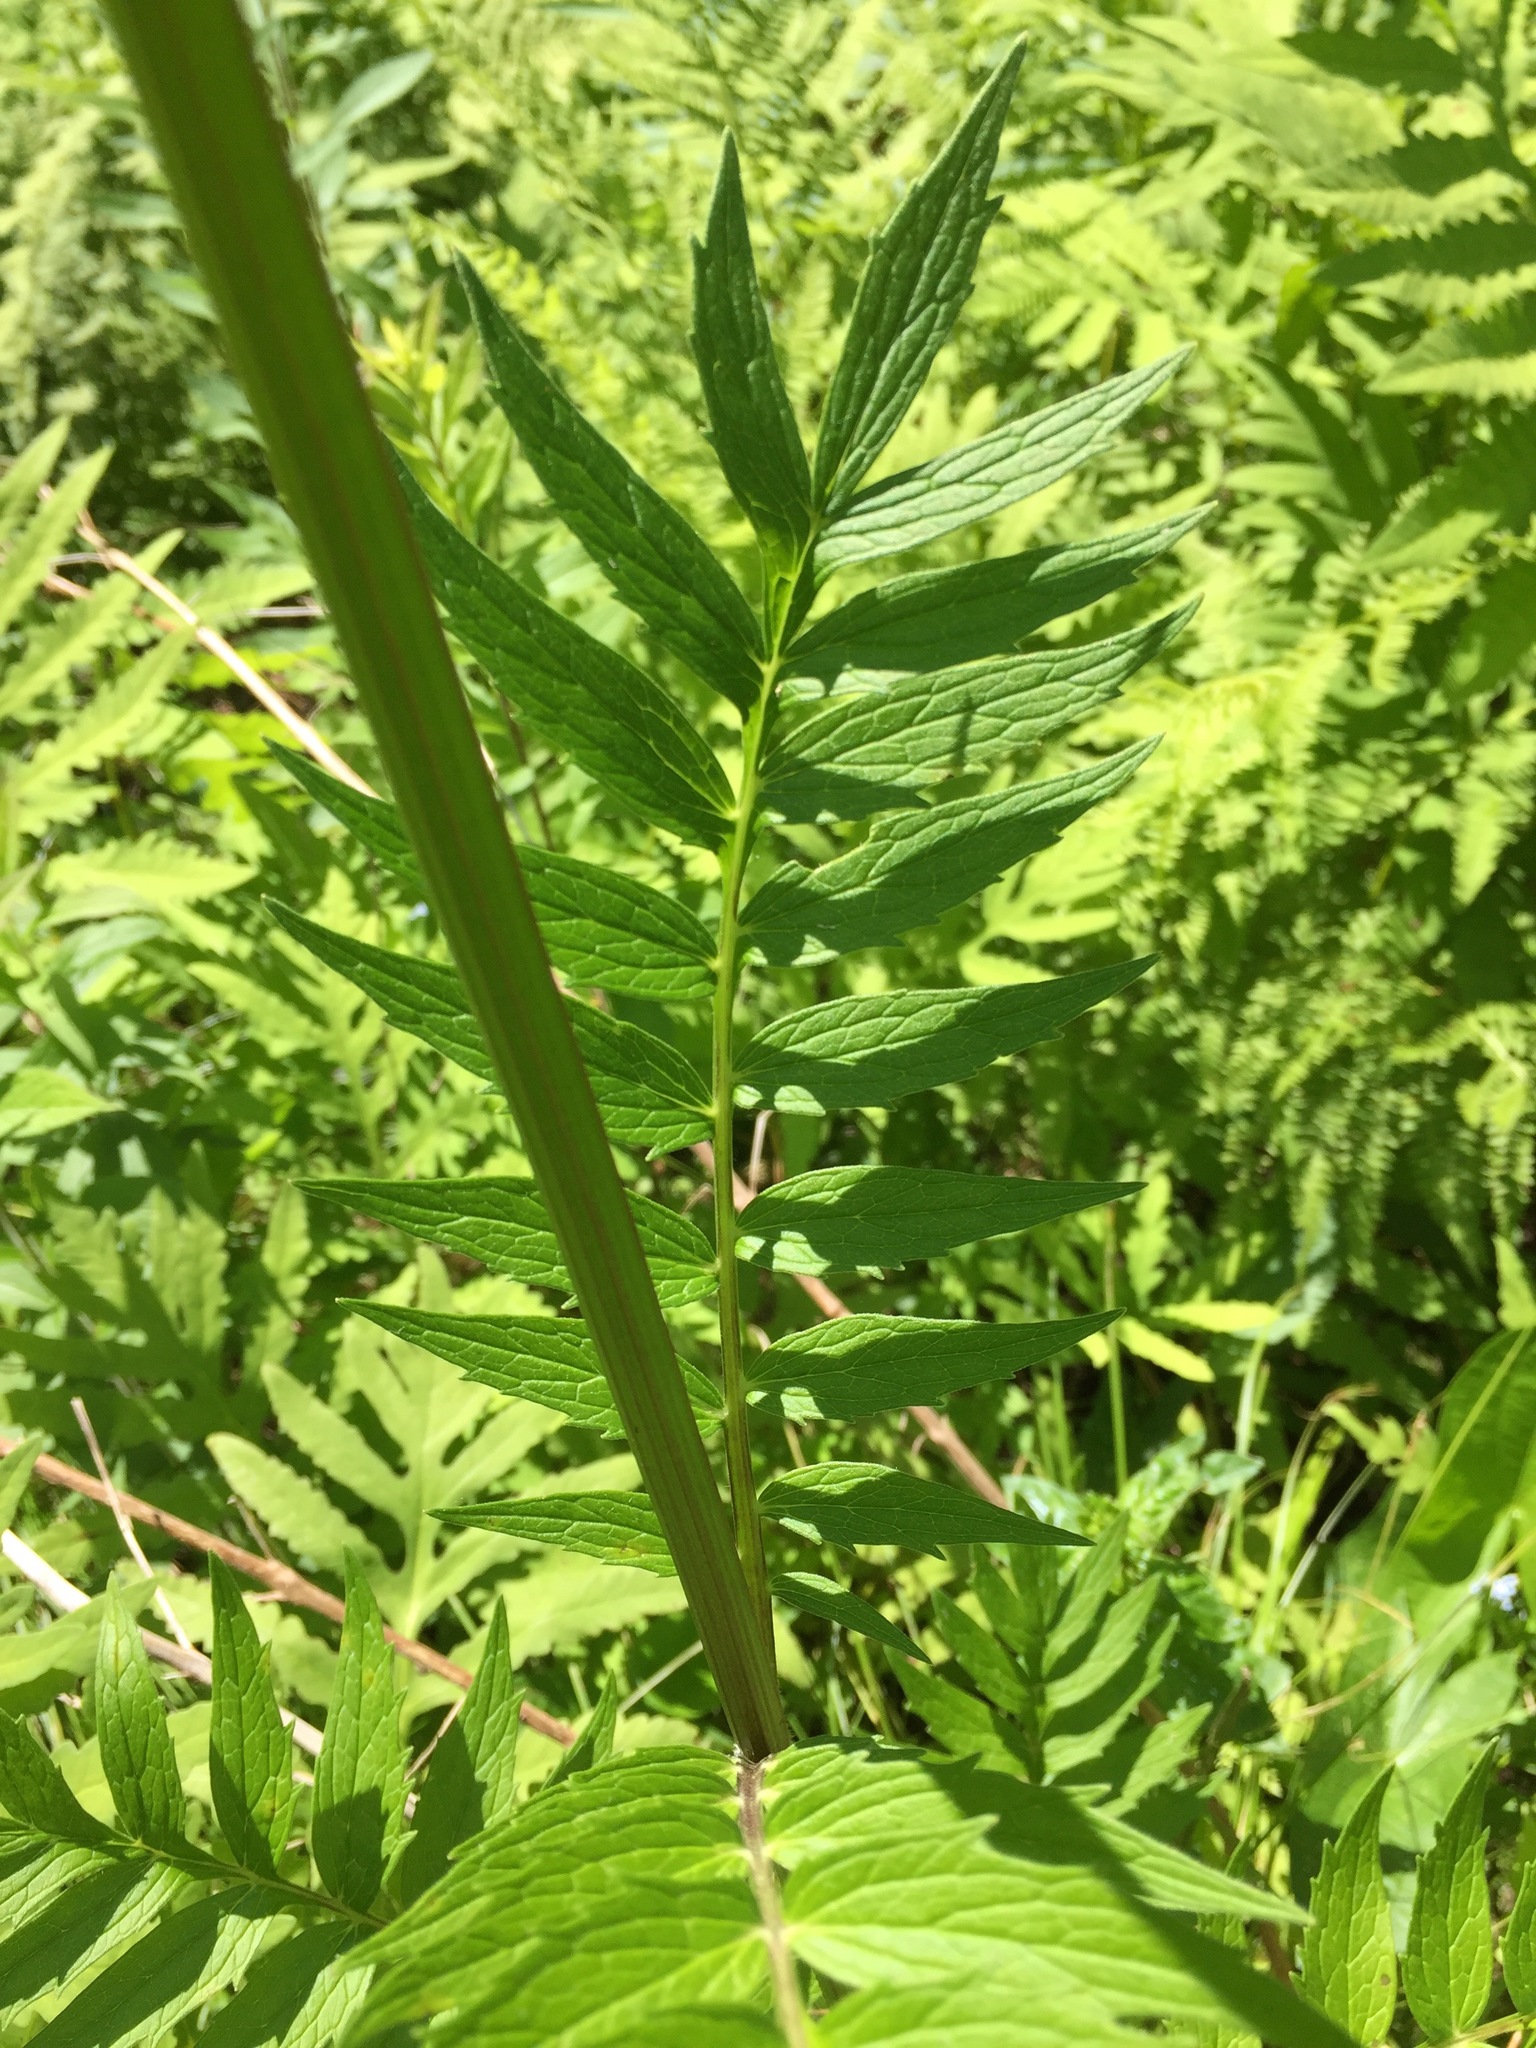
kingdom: Plantae
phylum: Tracheophyta
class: Magnoliopsida
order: Dipsacales
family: Caprifoliaceae
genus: Valeriana
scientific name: Valeriana officinalis
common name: Common valerian
